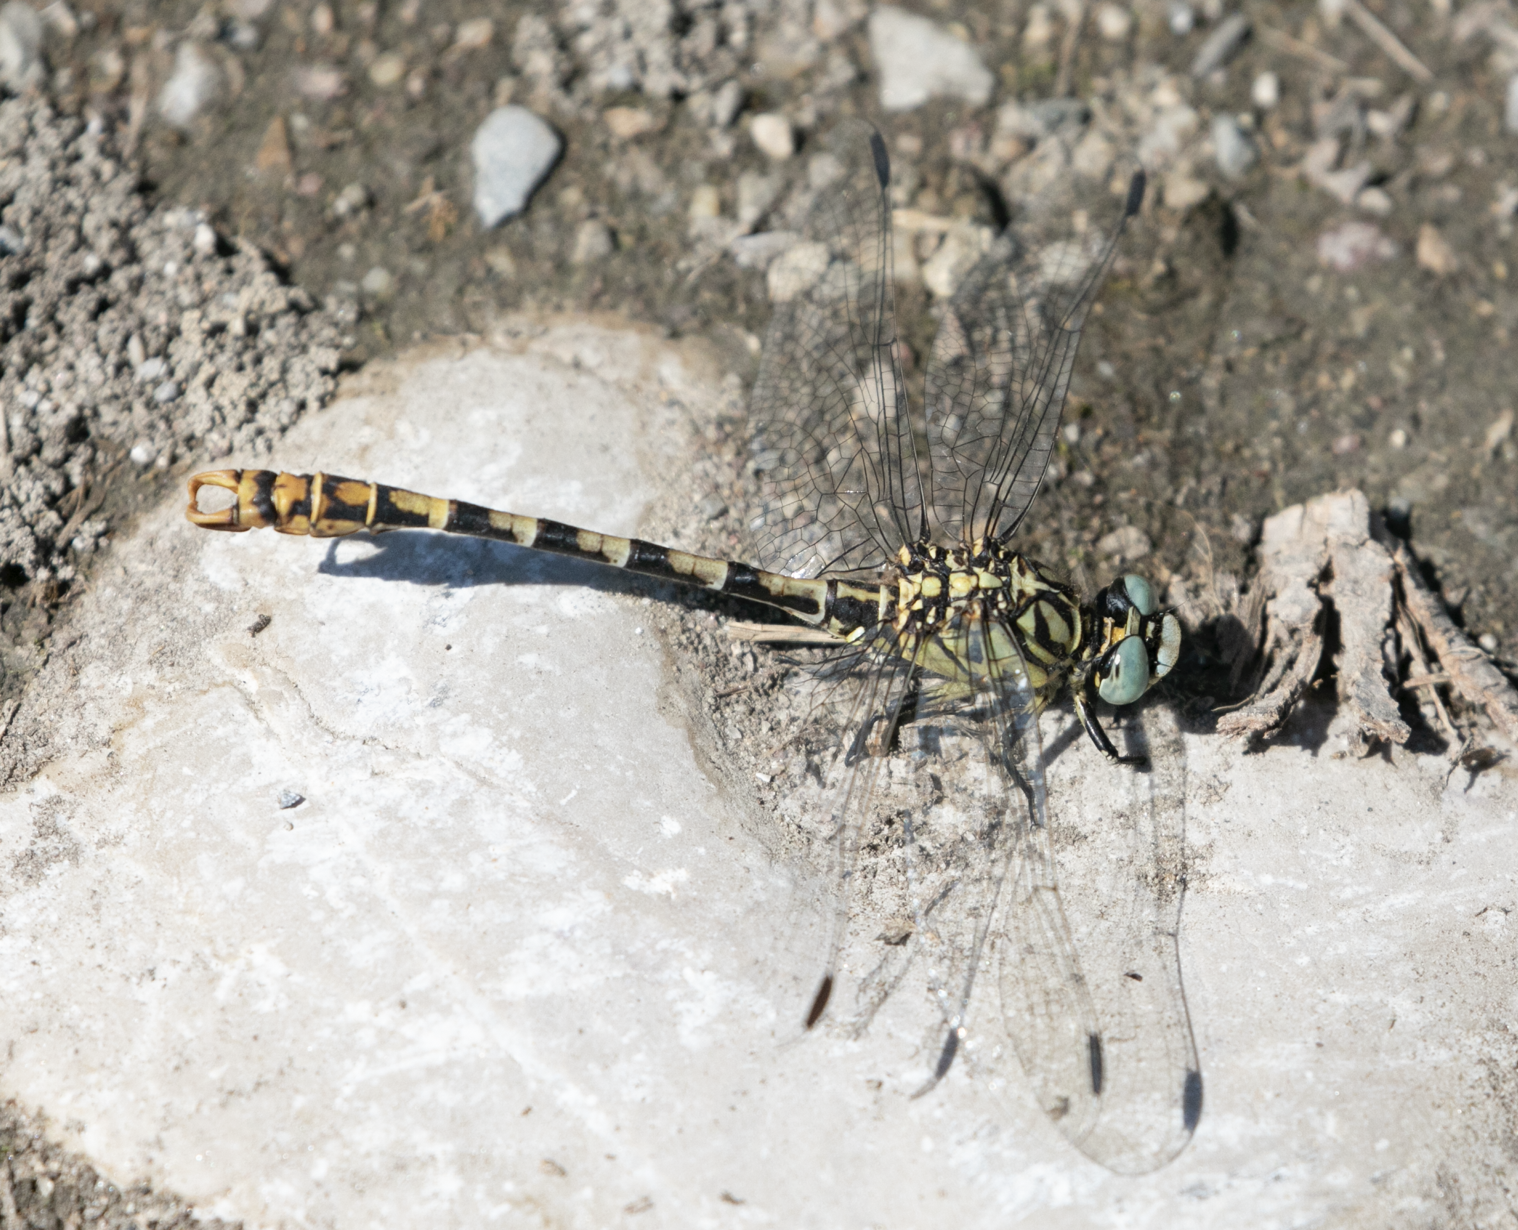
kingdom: Animalia
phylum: Arthropoda
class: Insecta
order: Odonata
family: Gomphidae
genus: Onychogomphus
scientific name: Onychogomphus forcipatus
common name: Small pincertail
